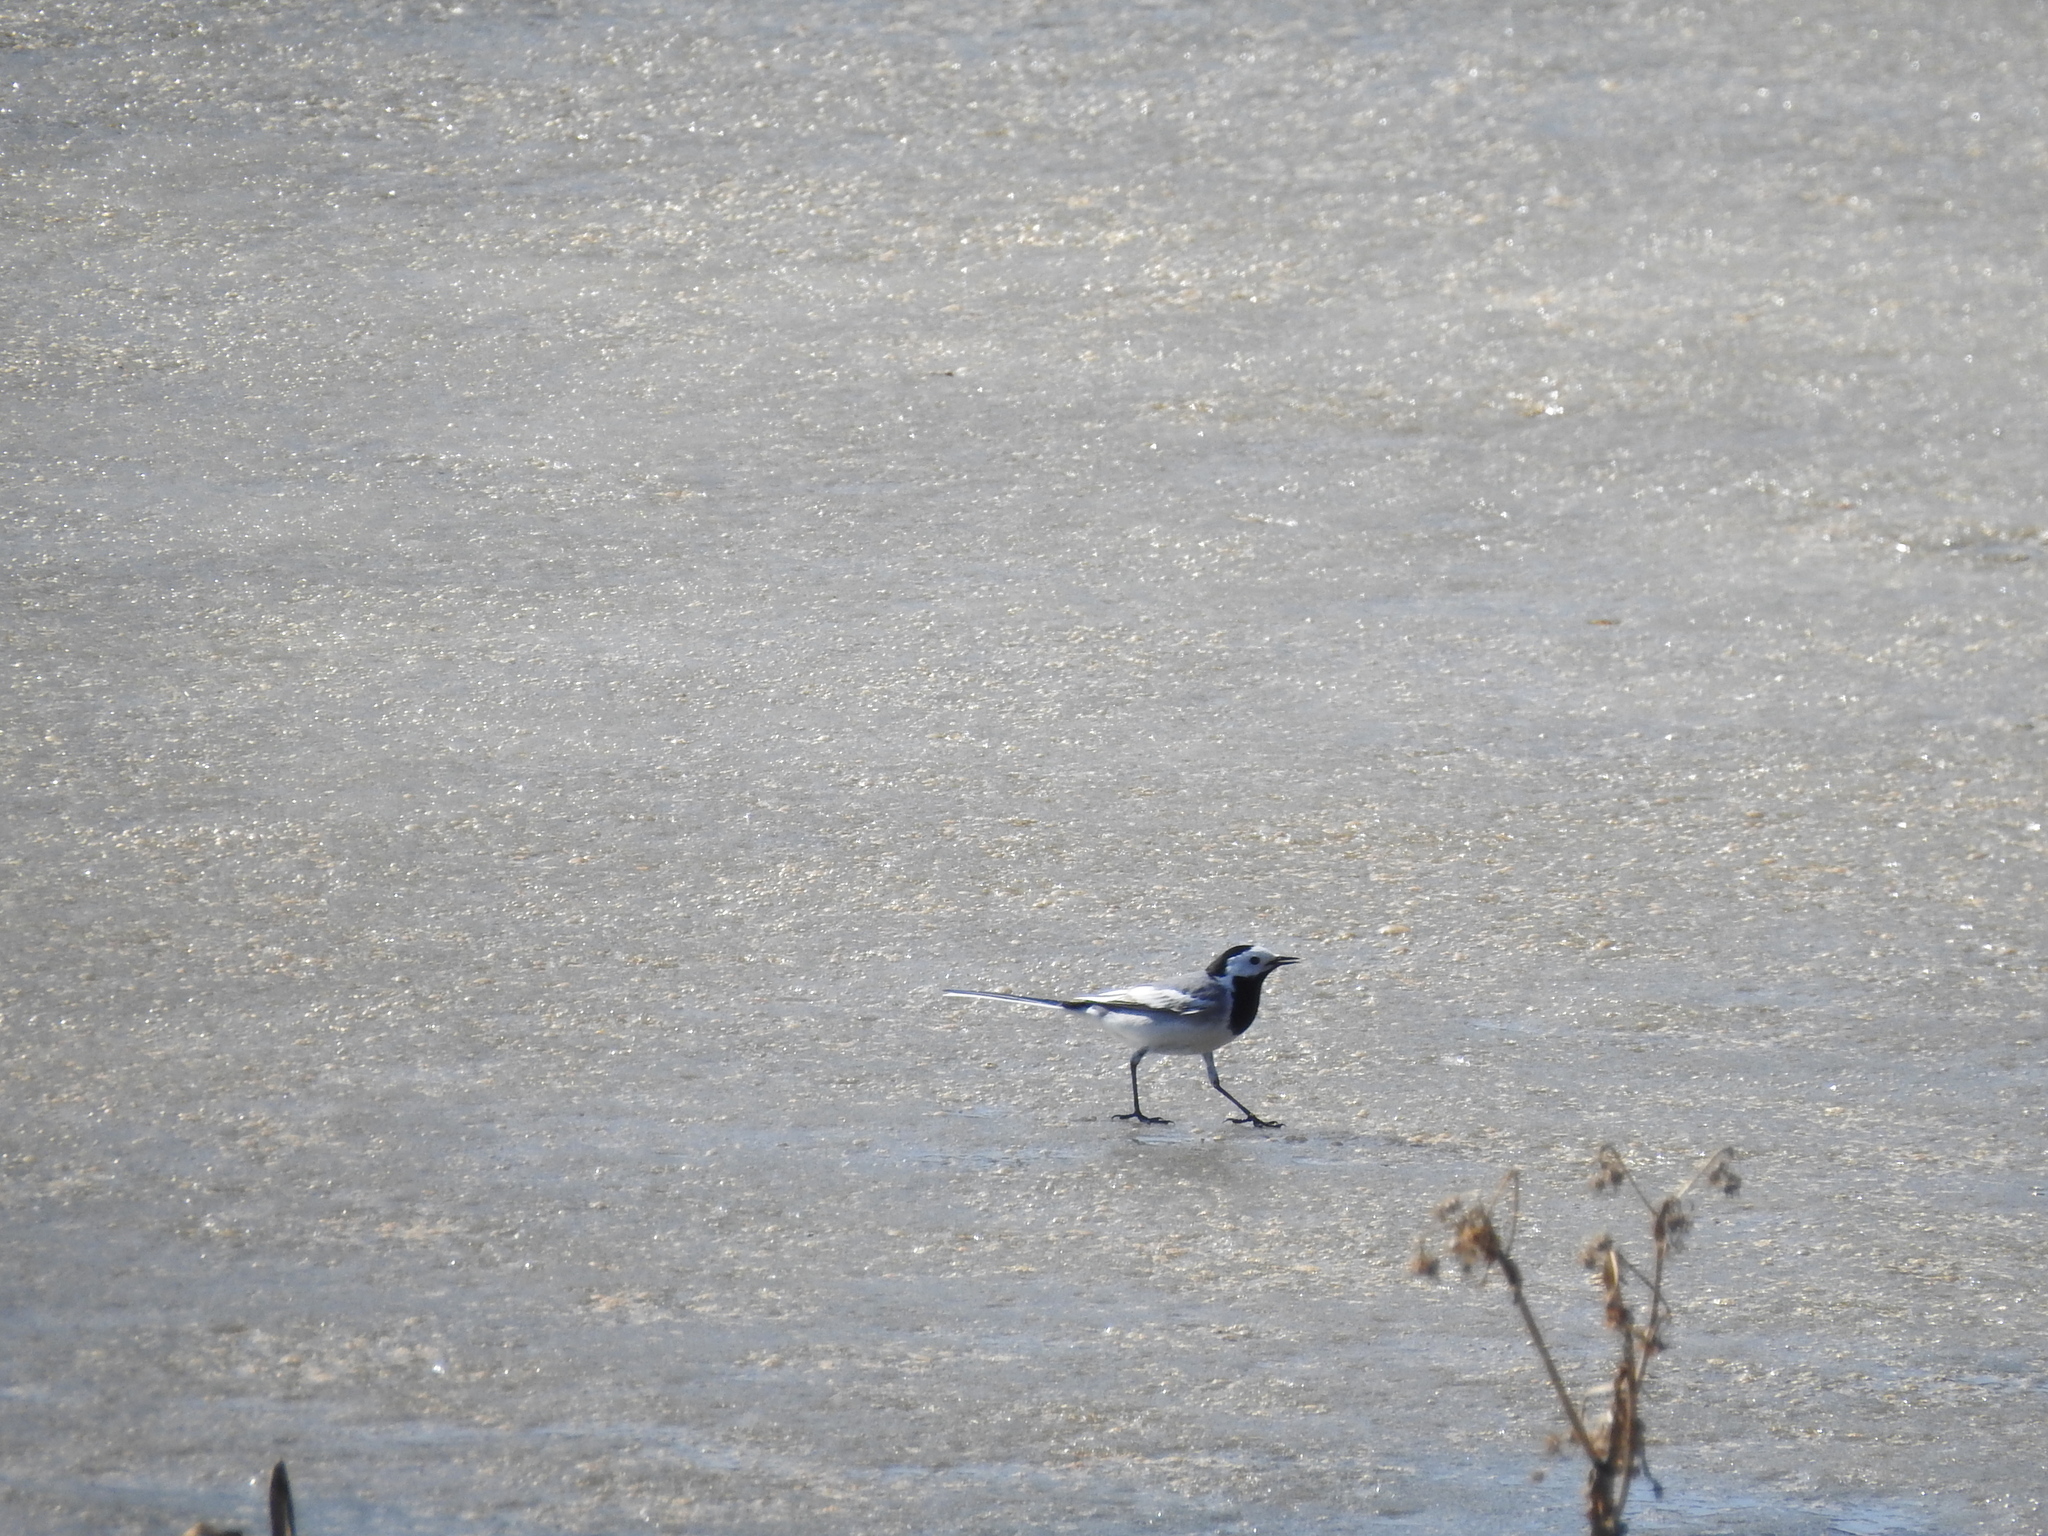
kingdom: Animalia
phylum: Chordata
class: Aves
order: Passeriformes
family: Motacillidae
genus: Motacilla
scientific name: Motacilla alba
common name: White wagtail
